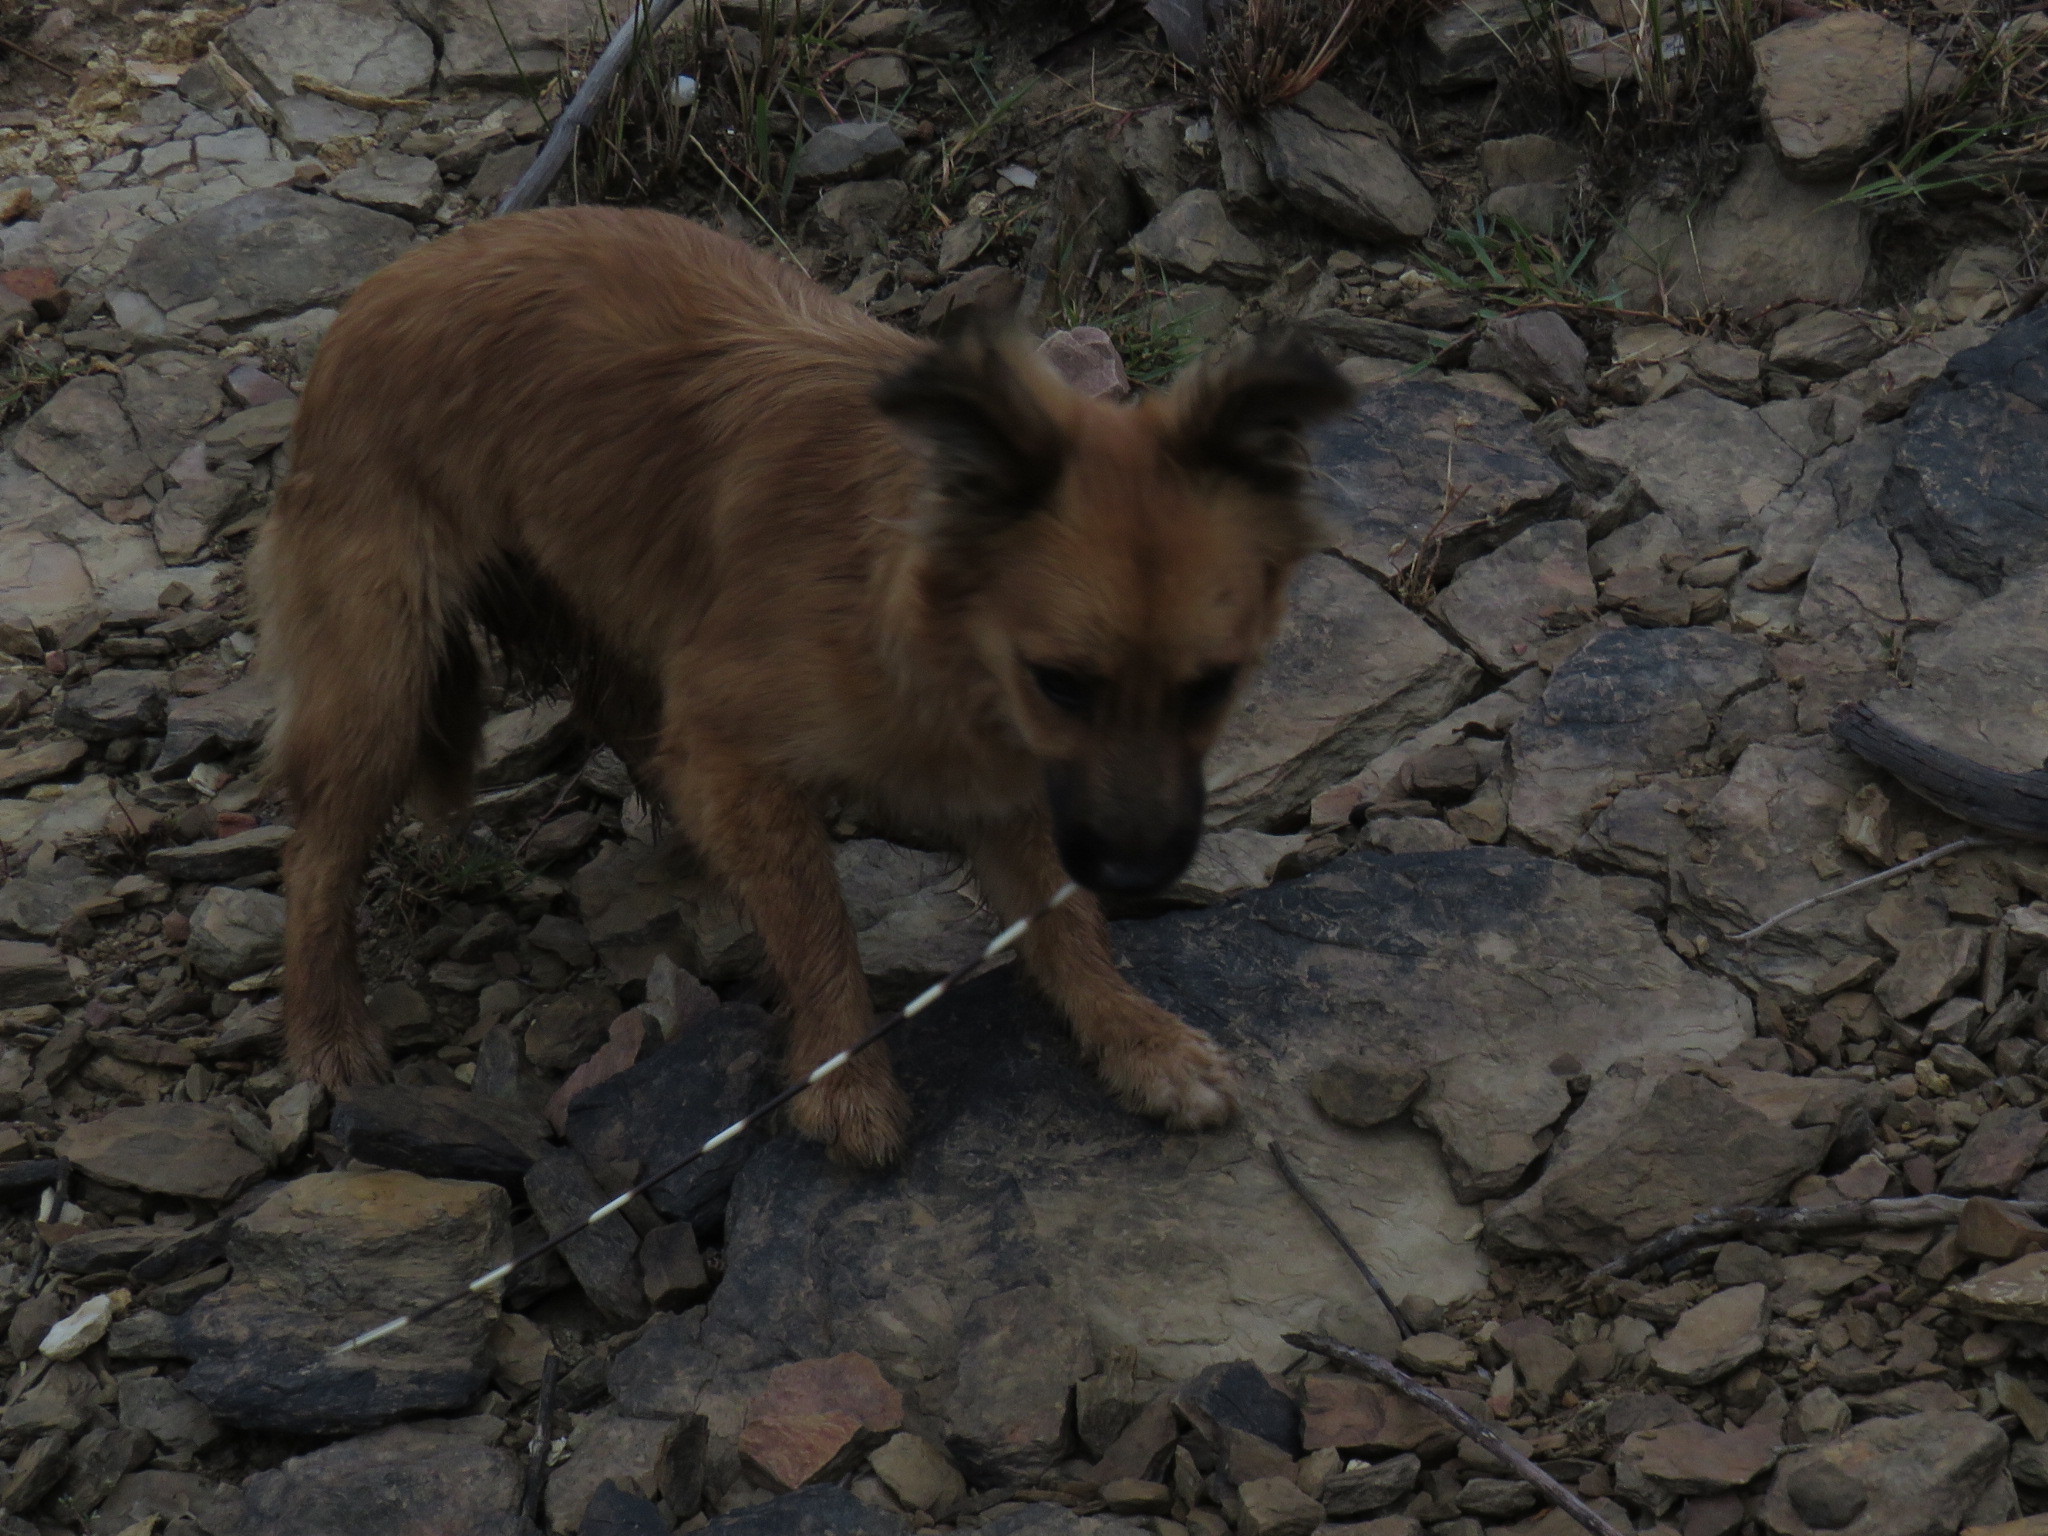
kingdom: Animalia
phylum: Chordata
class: Mammalia
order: Rodentia
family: Hystricidae
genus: Hystrix
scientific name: Hystrix africaeaustralis
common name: Cape porcupine
